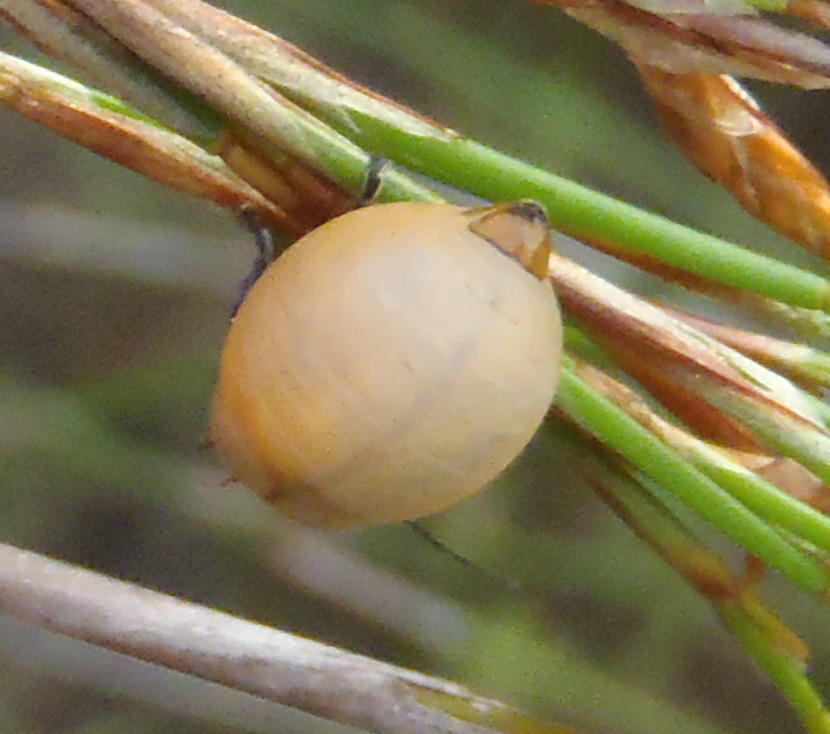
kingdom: Animalia
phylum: Arthropoda
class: Insecta
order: Coleoptera
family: Chrysomelidae
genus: Pseudorupilia
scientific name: Pseudorupilia
